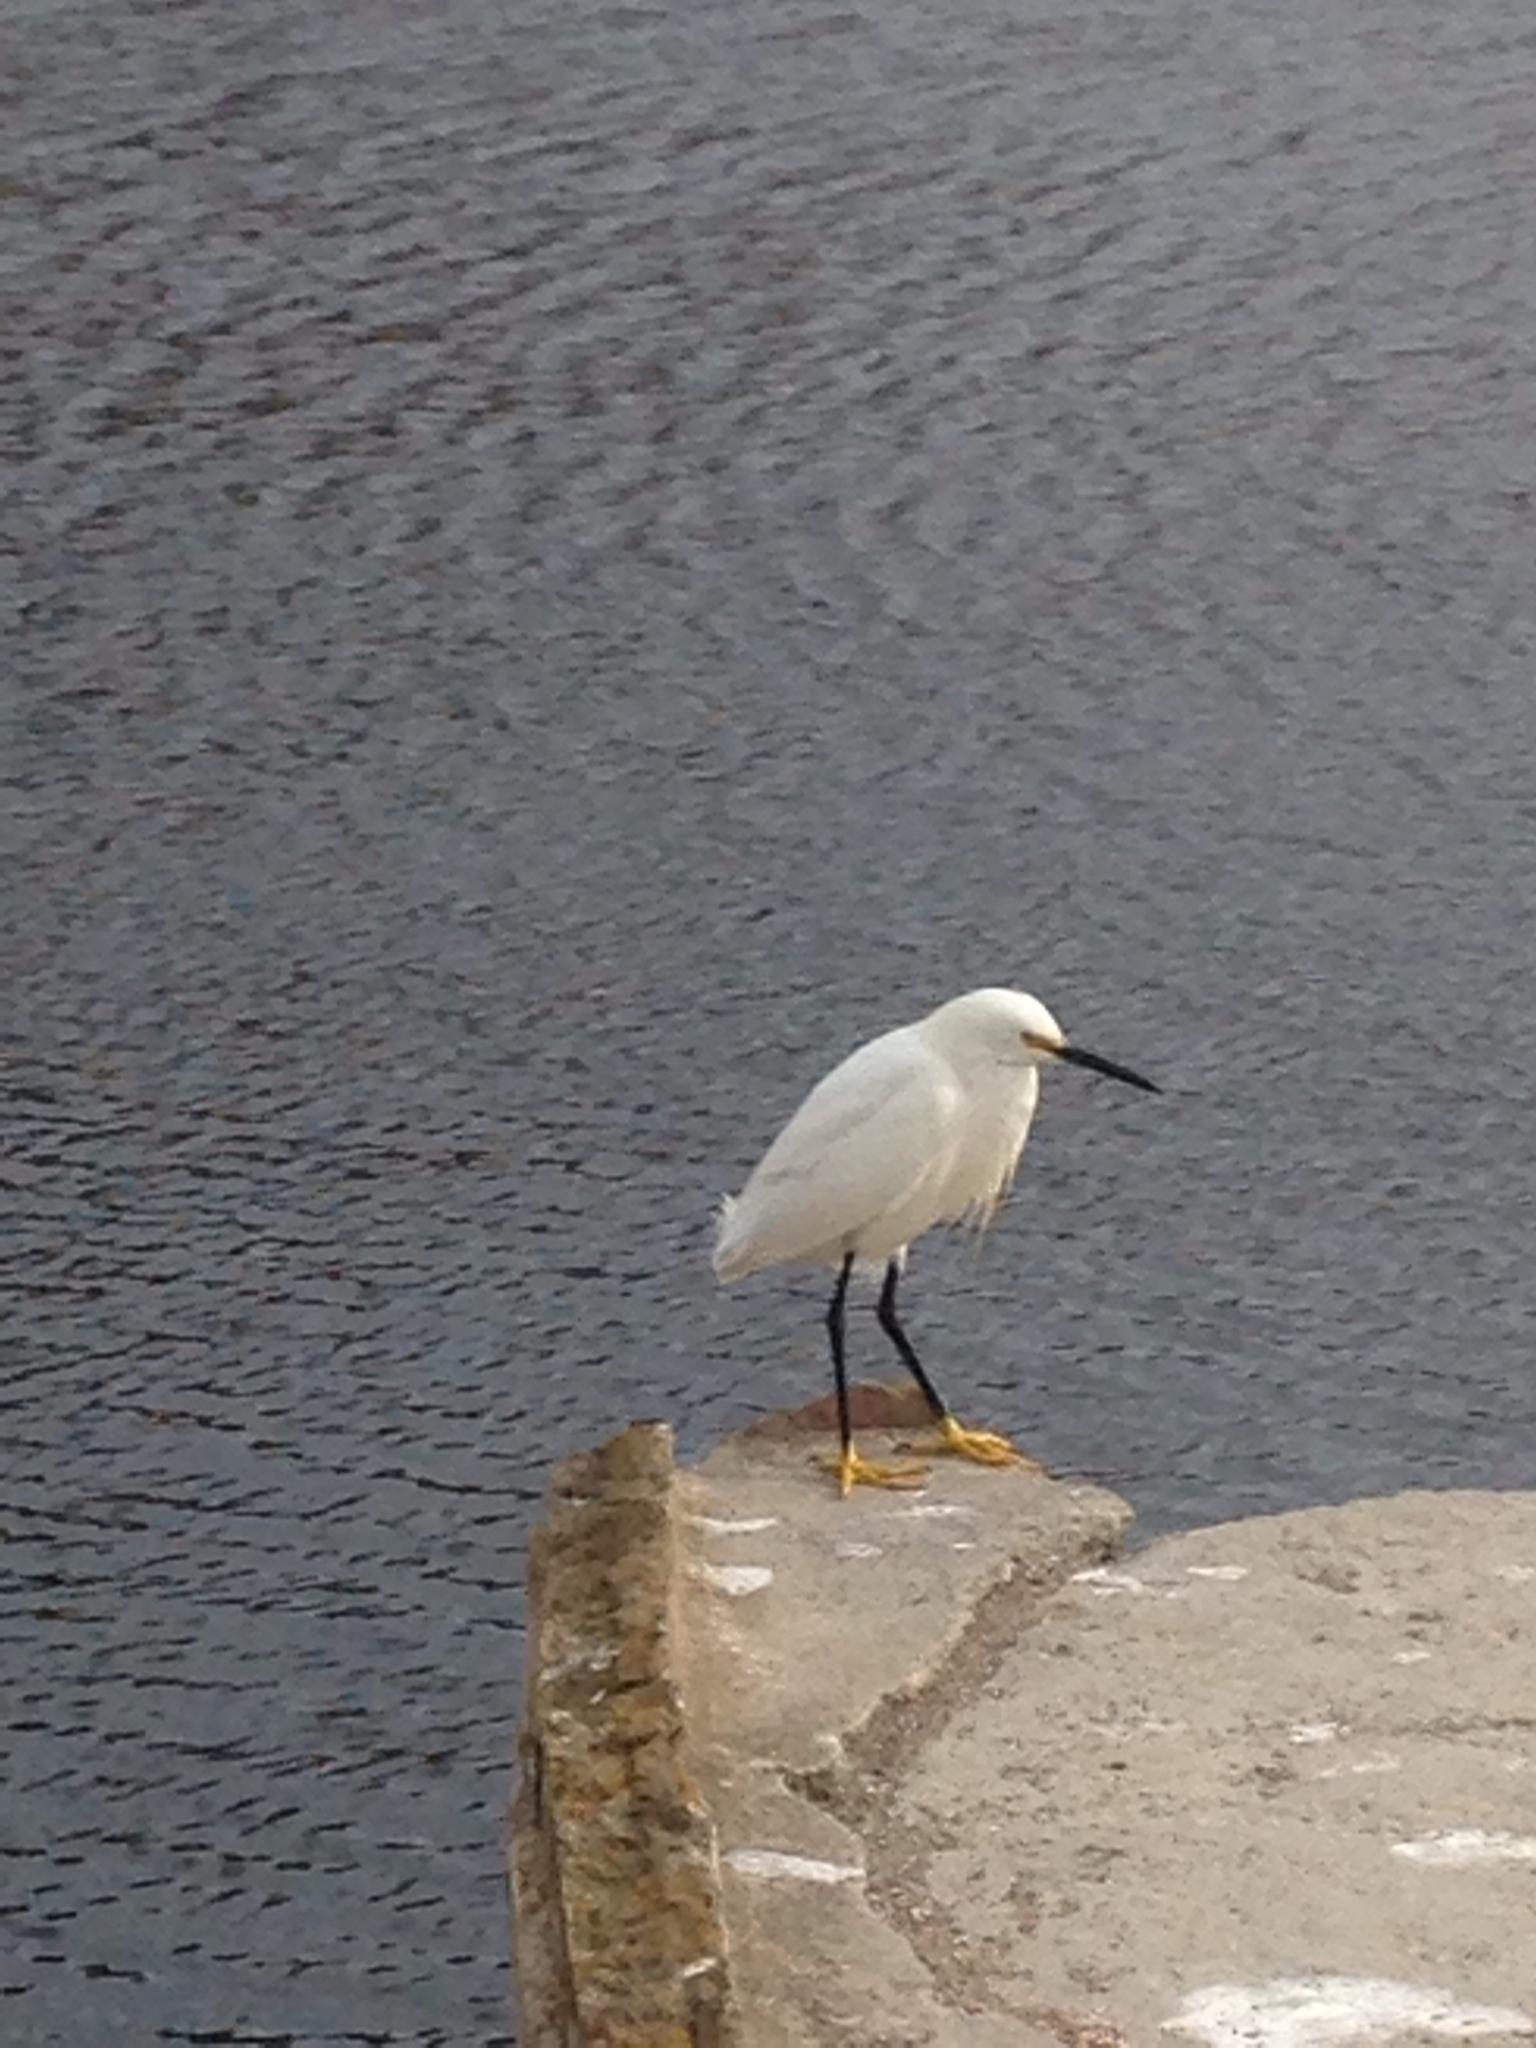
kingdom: Animalia
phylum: Chordata
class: Aves
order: Pelecaniformes
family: Ardeidae
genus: Egretta
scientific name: Egretta thula
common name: Snowy egret
